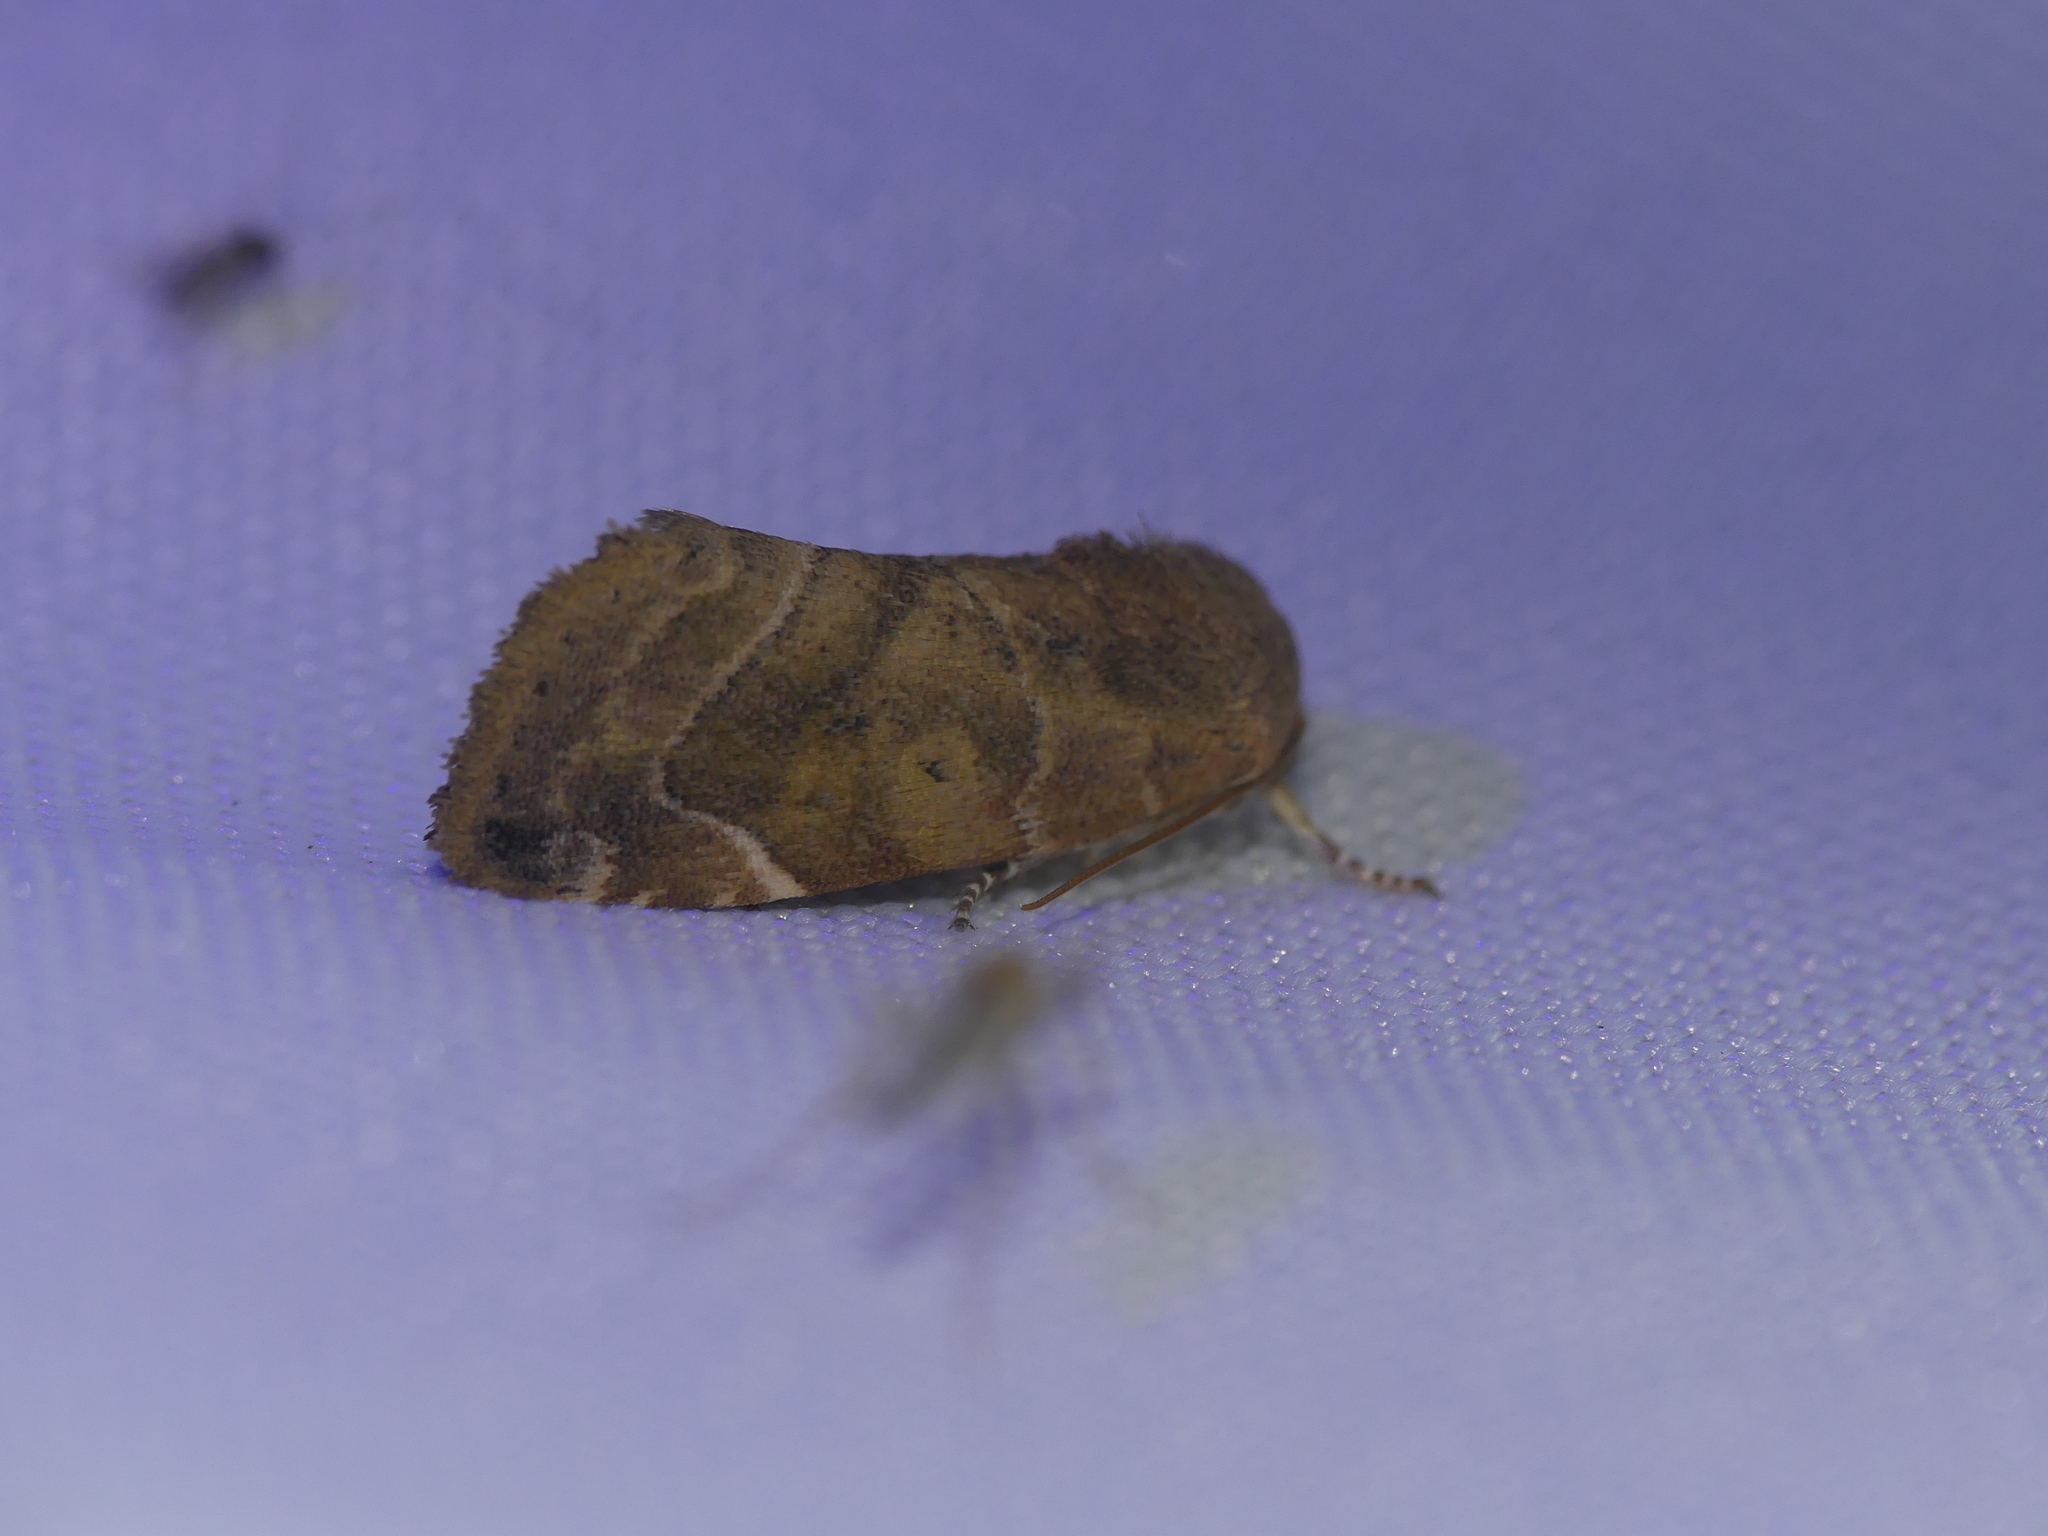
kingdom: Animalia
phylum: Arthropoda
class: Insecta
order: Lepidoptera
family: Noctuidae
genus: Cosmia
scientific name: Cosmia affinis
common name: Lesser-spotted pinion
